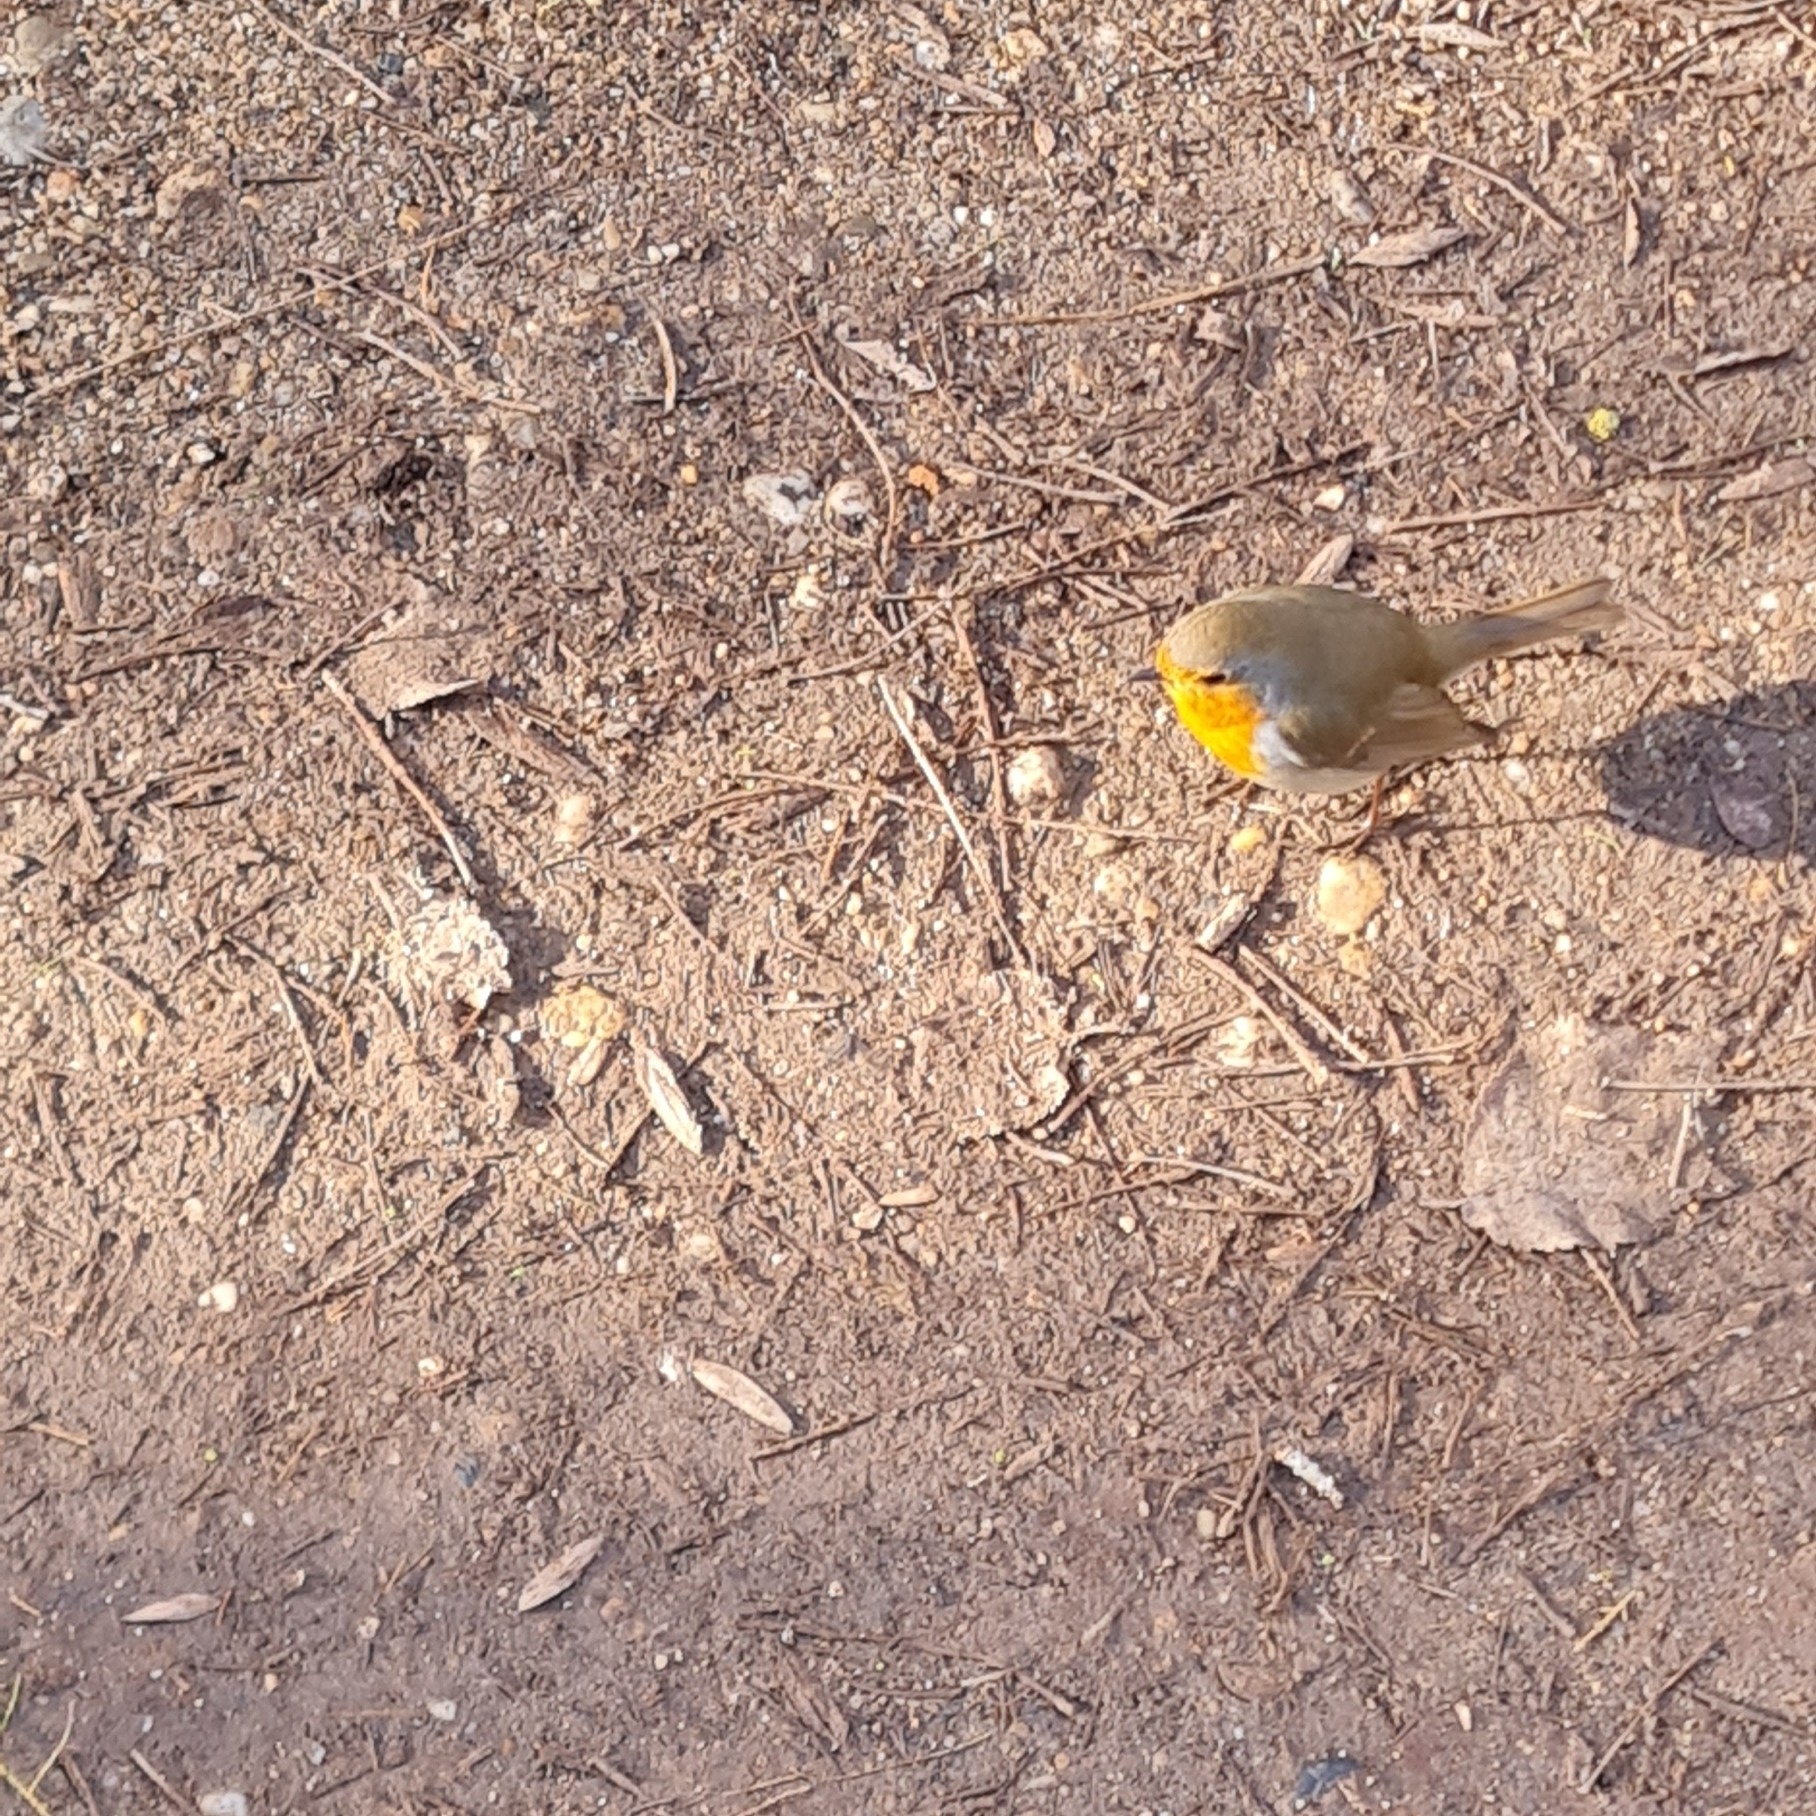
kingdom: Animalia
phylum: Chordata
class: Aves
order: Passeriformes
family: Muscicapidae
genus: Erithacus
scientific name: Erithacus rubecula
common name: European robin
